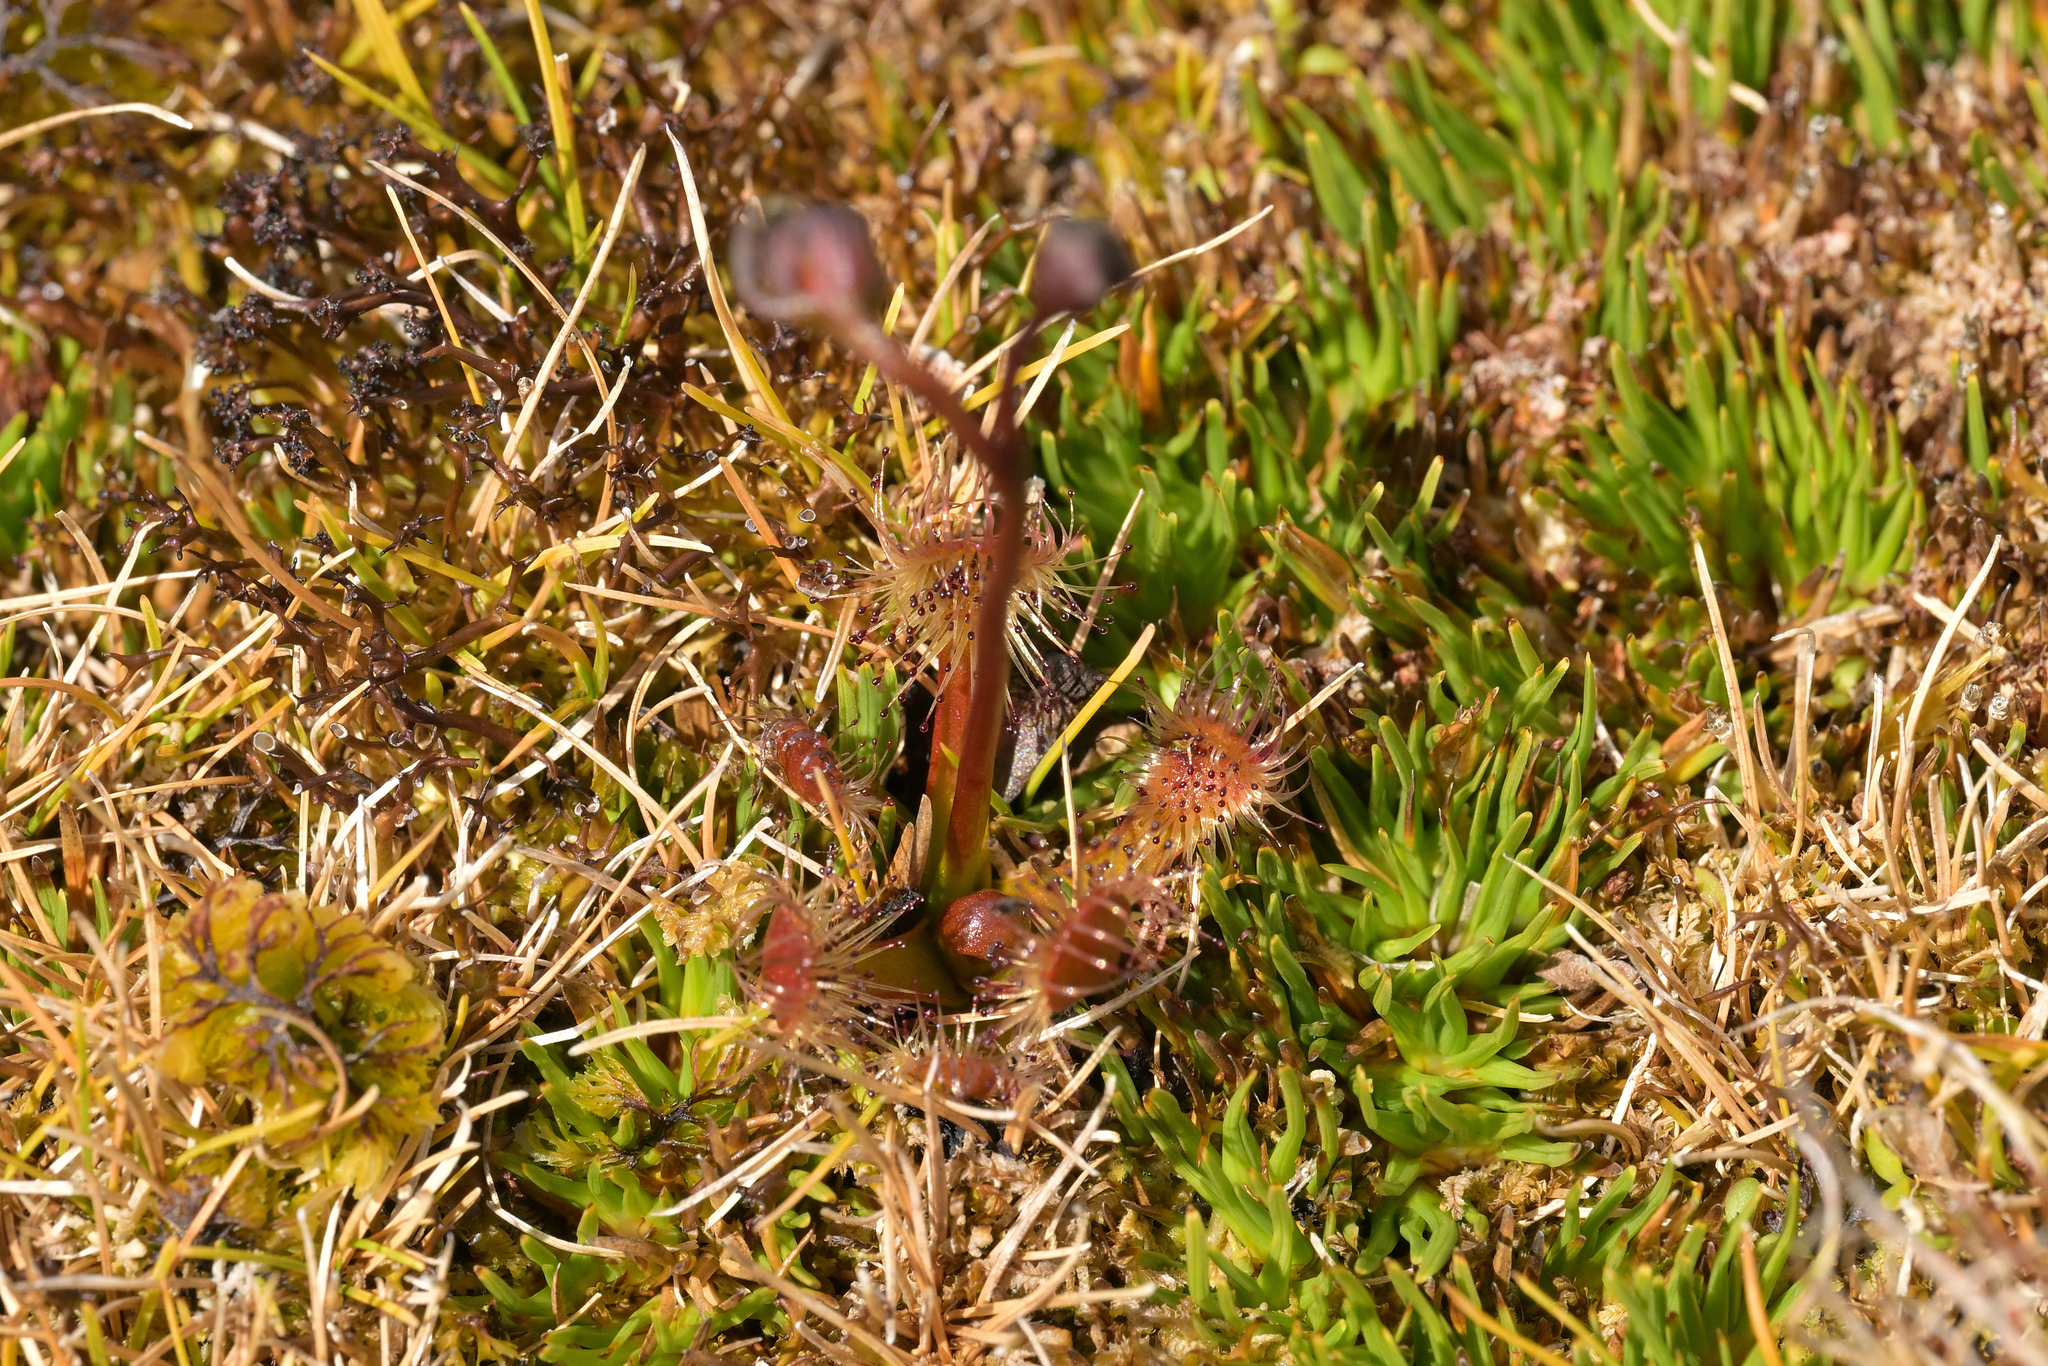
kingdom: Plantae
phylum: Tracheophyta
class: Magnoliopsida
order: Caryophyllales
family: Droseraceae
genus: Drosera
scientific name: Drosera stenopetala
